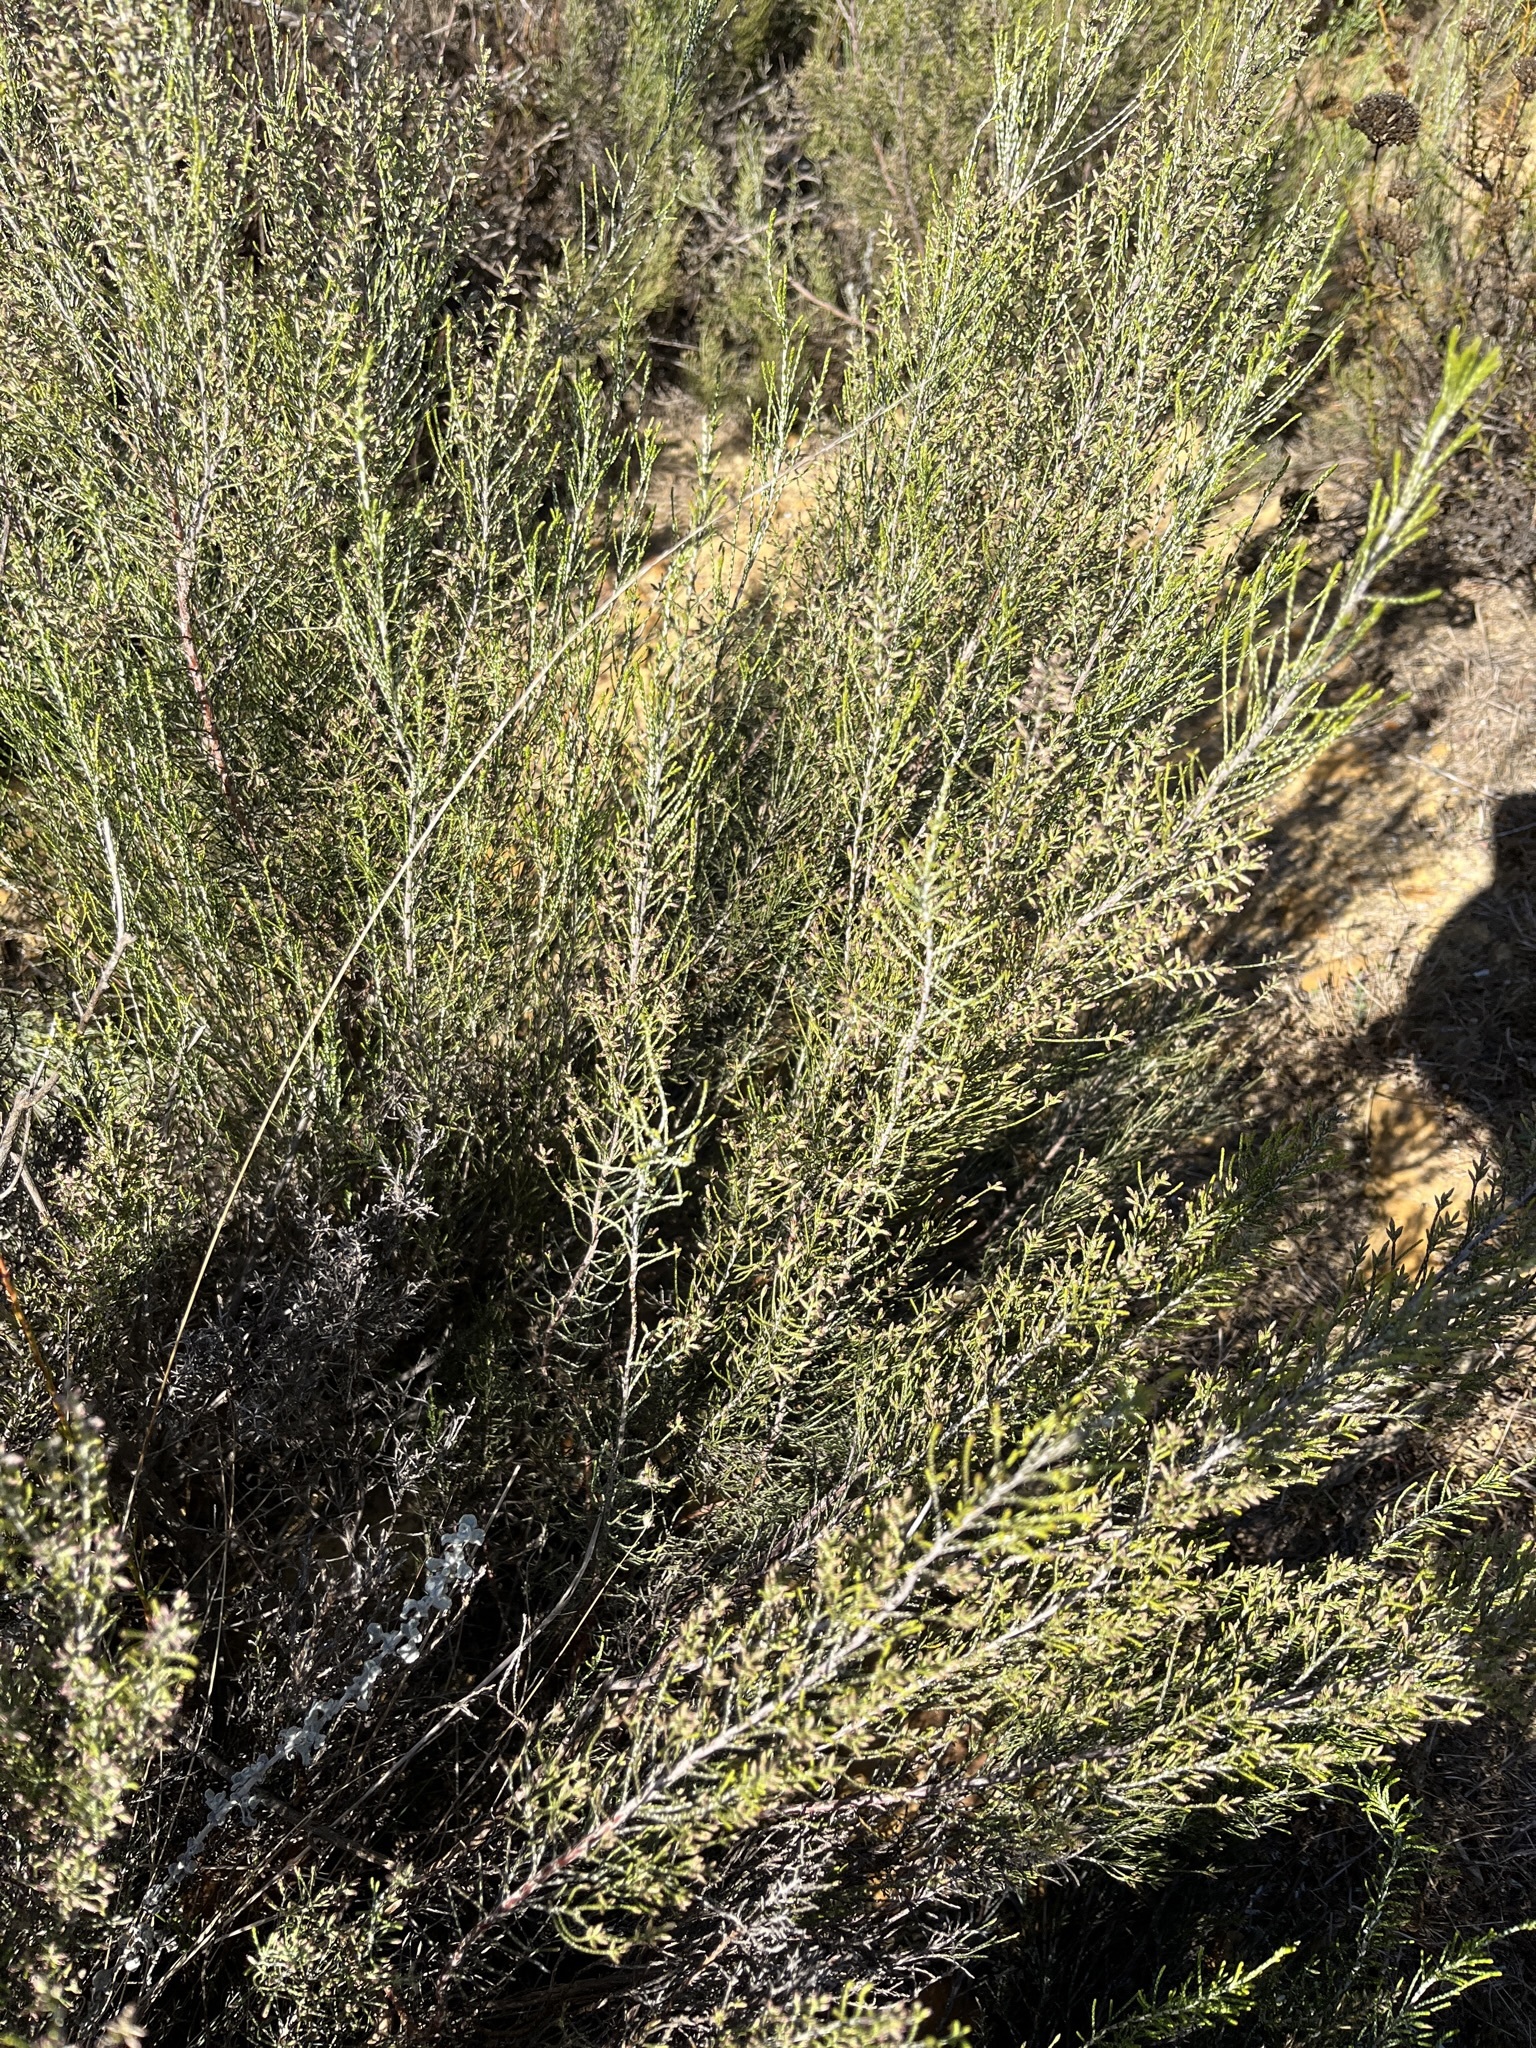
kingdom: Plantae
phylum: Tracheophyta
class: Magnoliopsida
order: Asterales
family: Asteraceae
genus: Dicerothamnus
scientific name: Dicerothamnus rhinocerotis
